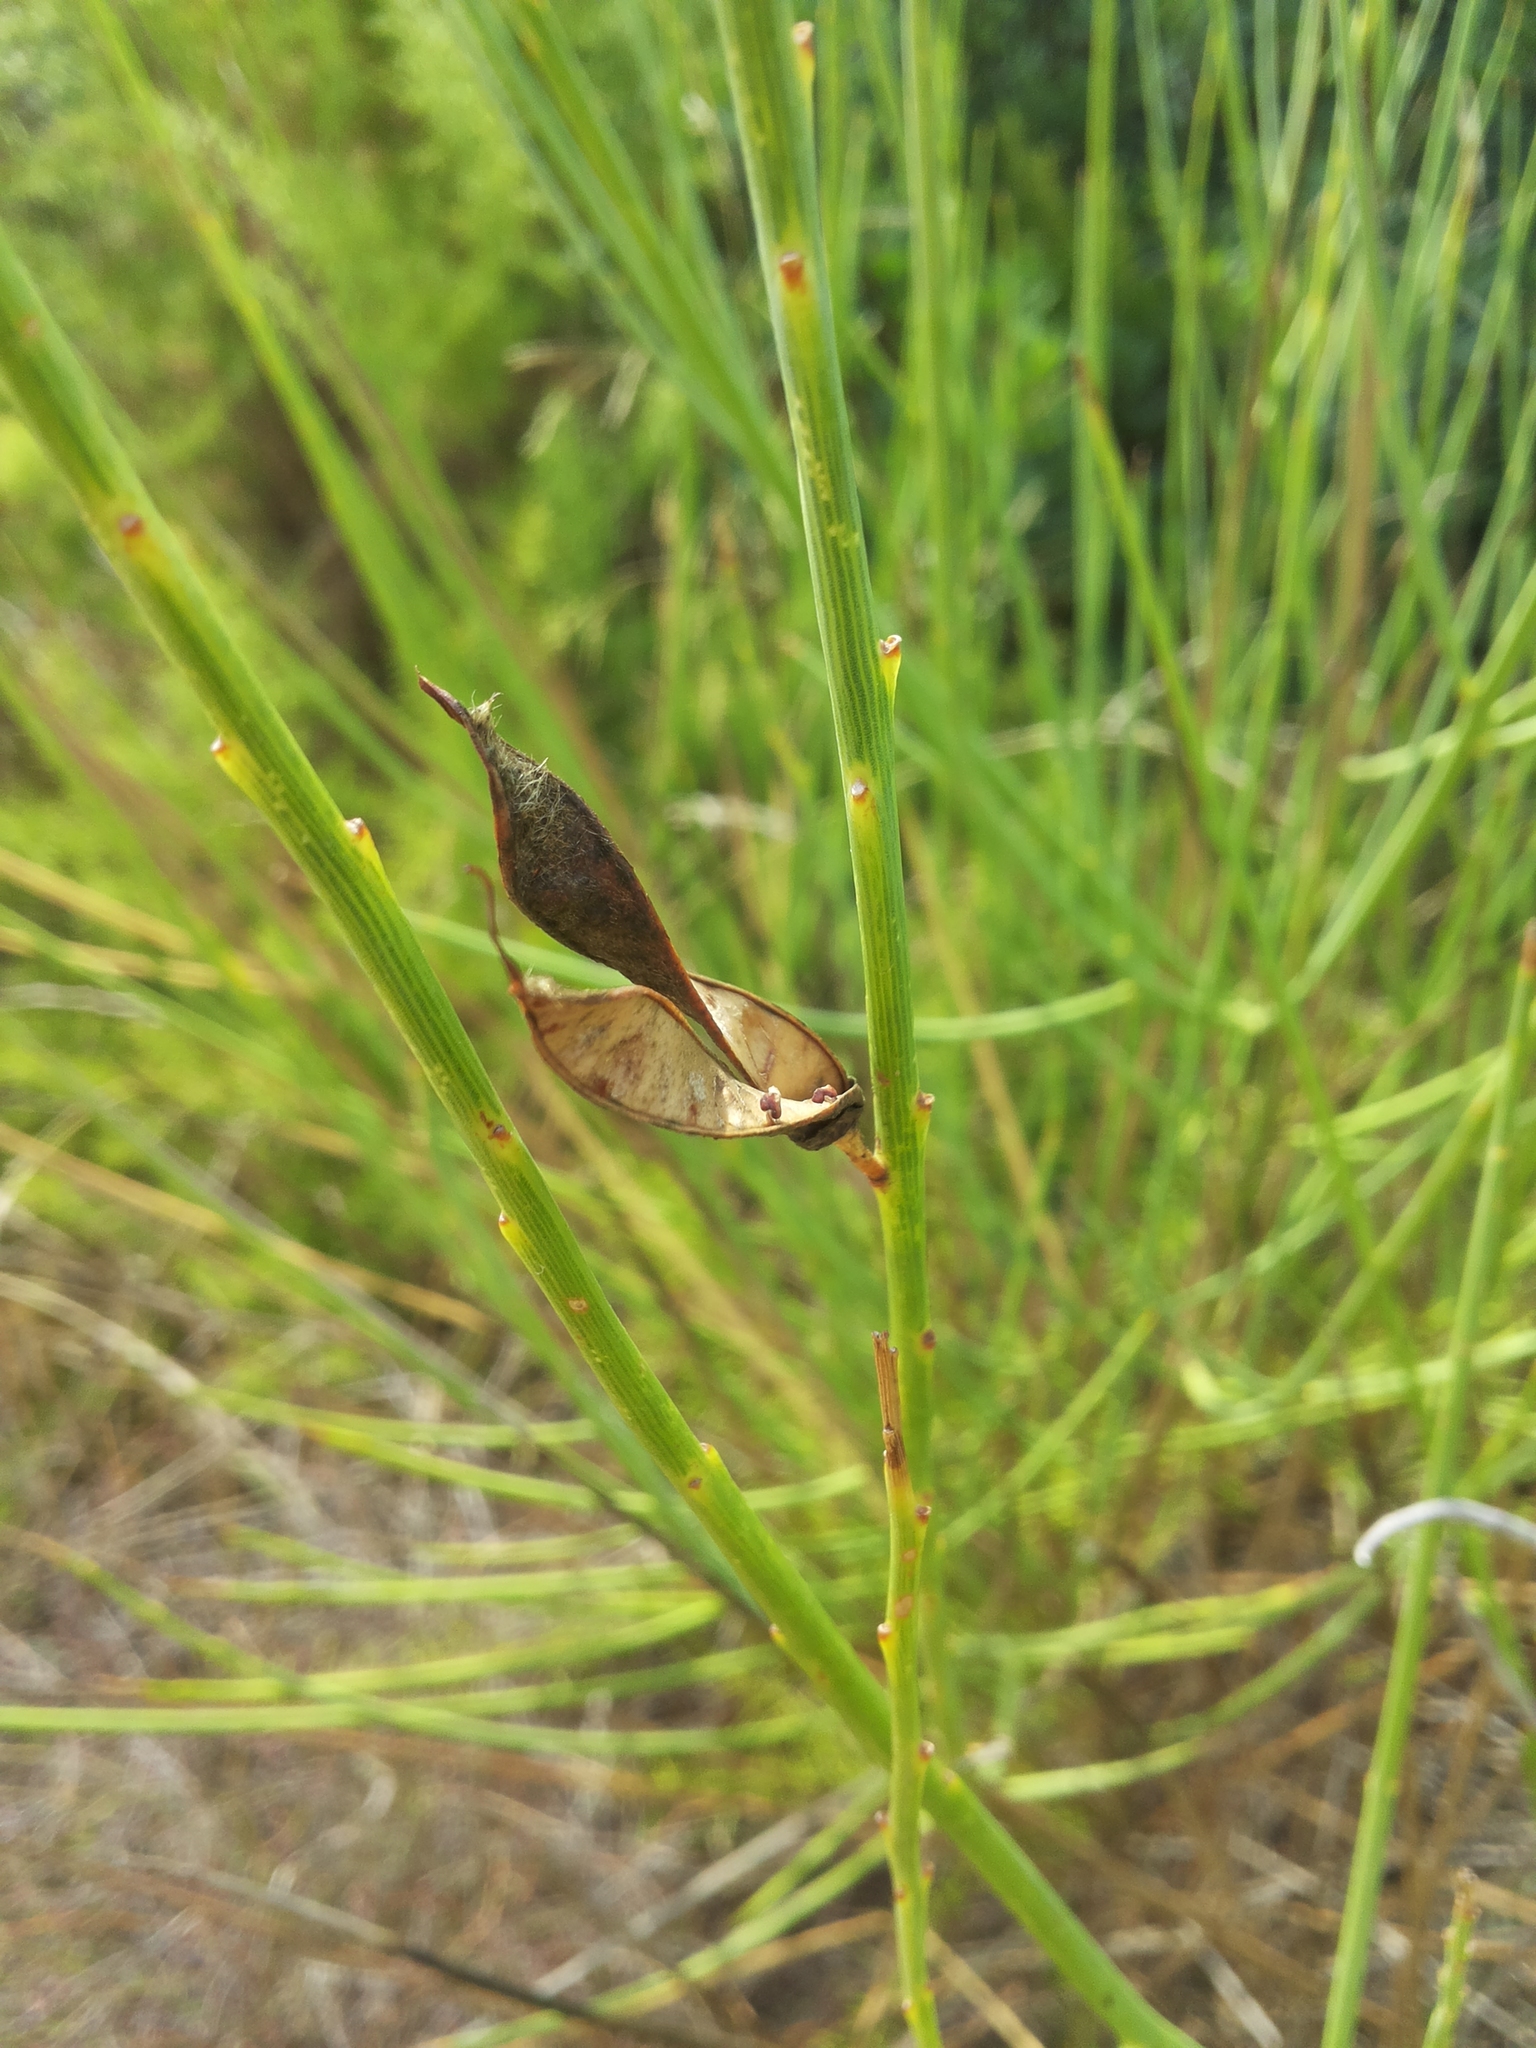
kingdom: Plantae
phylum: Tracheophyta
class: Magnoliopsida
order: Fabales
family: Fabaceae
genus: Spartium
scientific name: Spartium junceum
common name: Spanish broom
